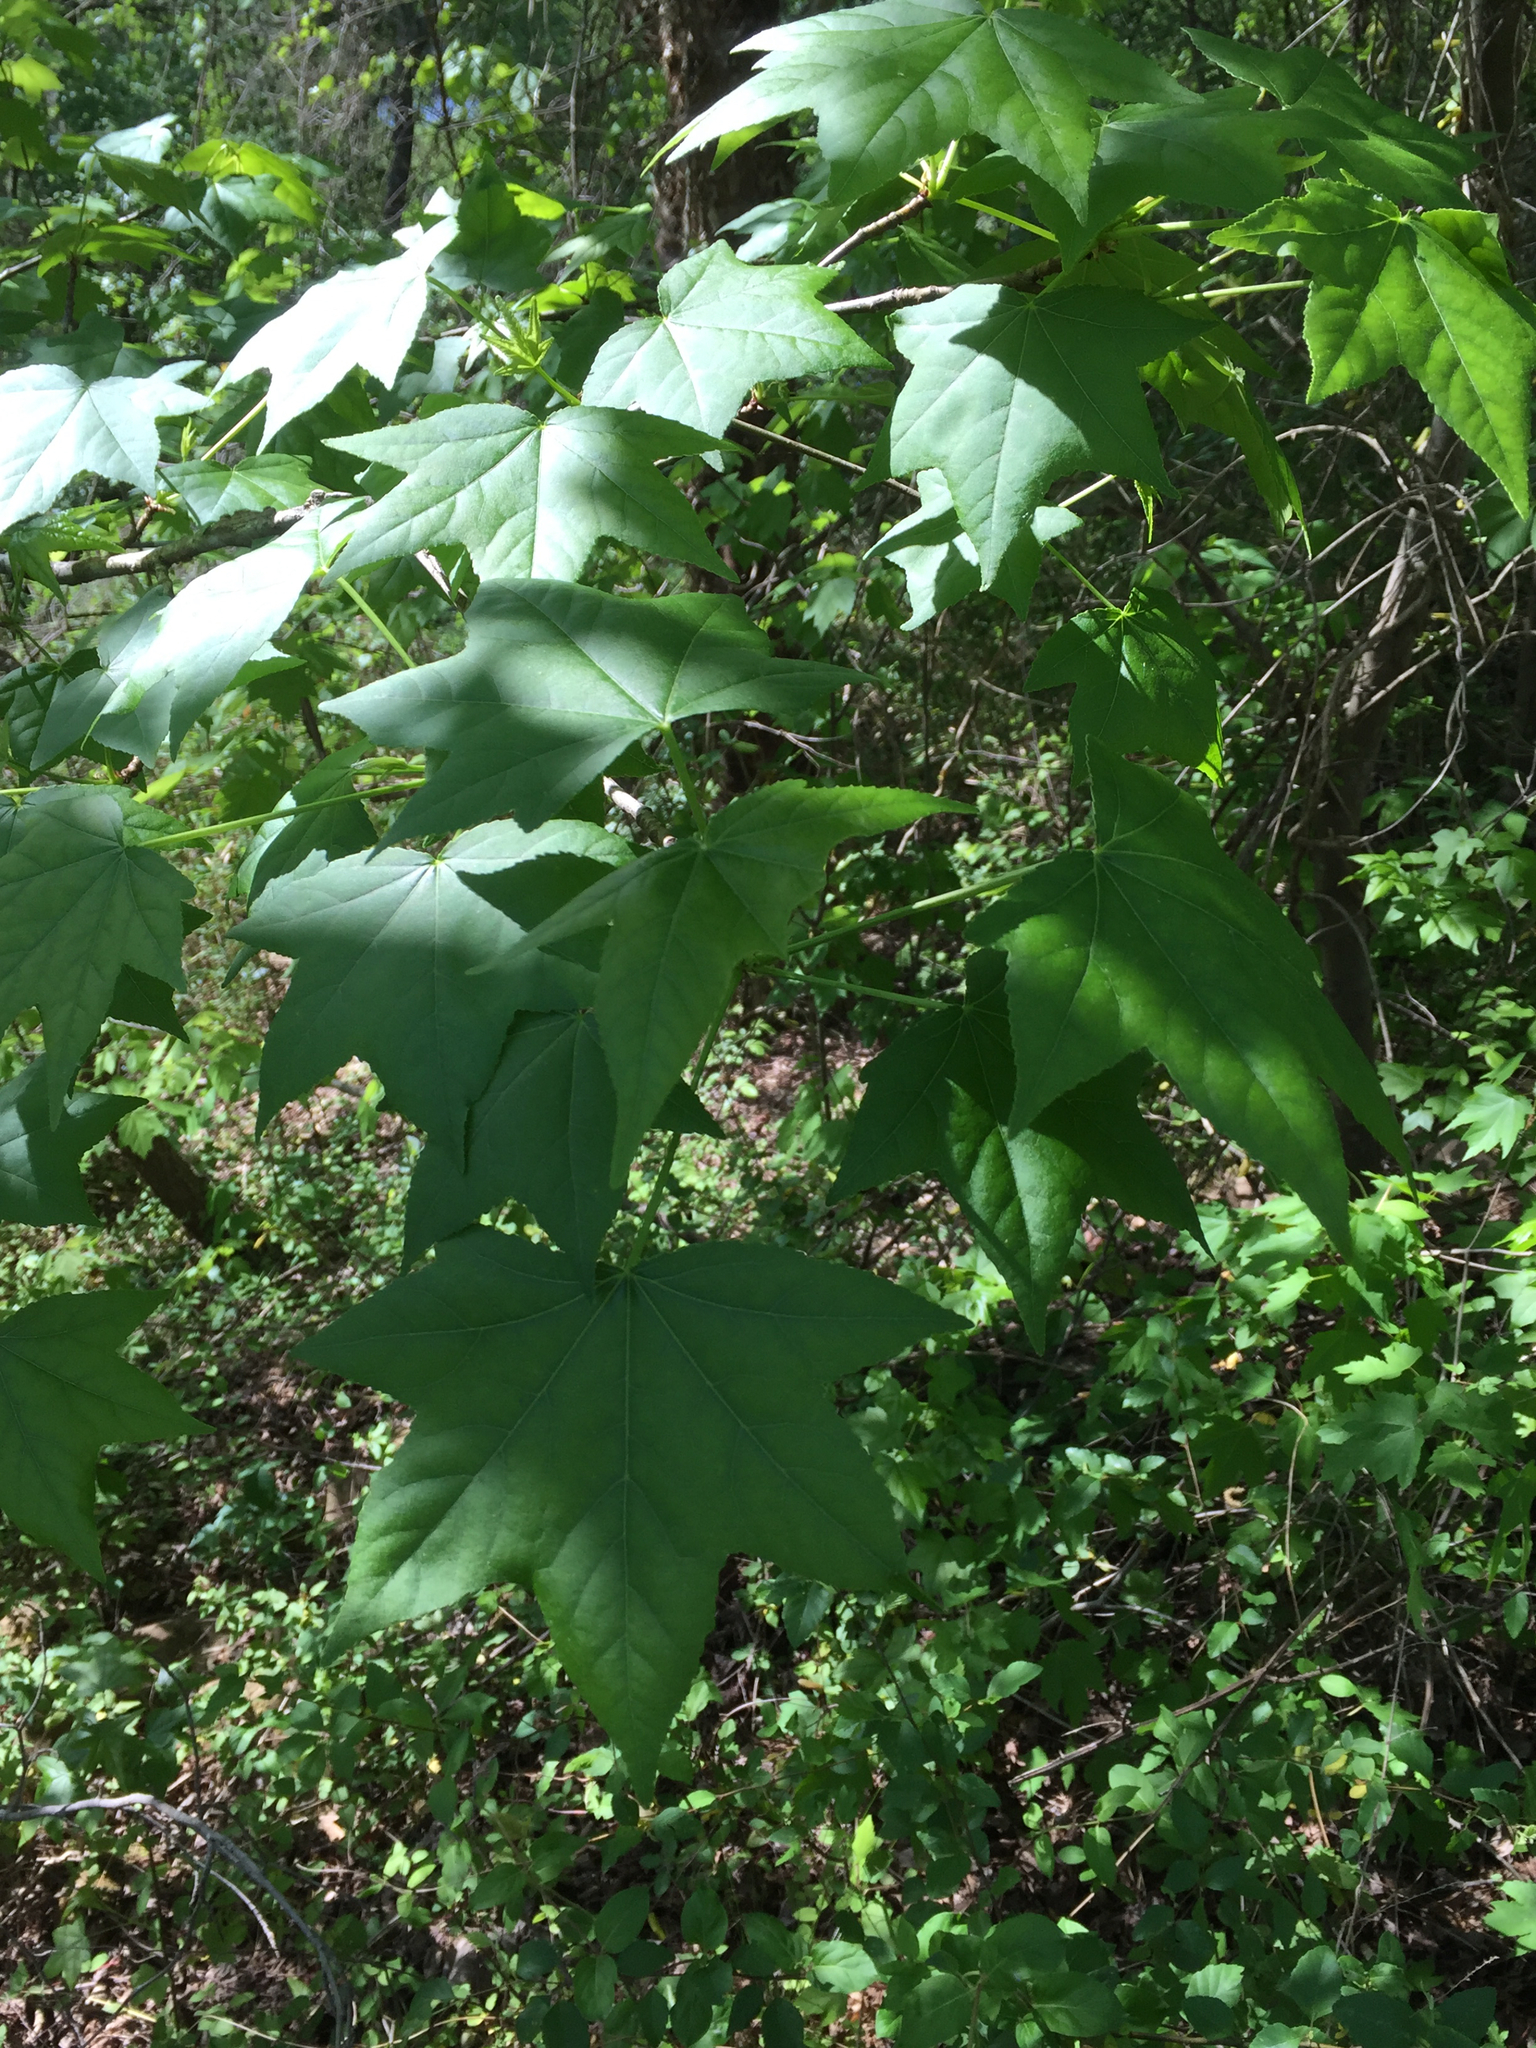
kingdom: Plantae
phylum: Tracheophyta
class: Magnoliopsida
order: Saxifragales
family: Altingiaceae
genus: Liquidambar
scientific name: Liquidambar styraciflua
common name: Sweet gum
